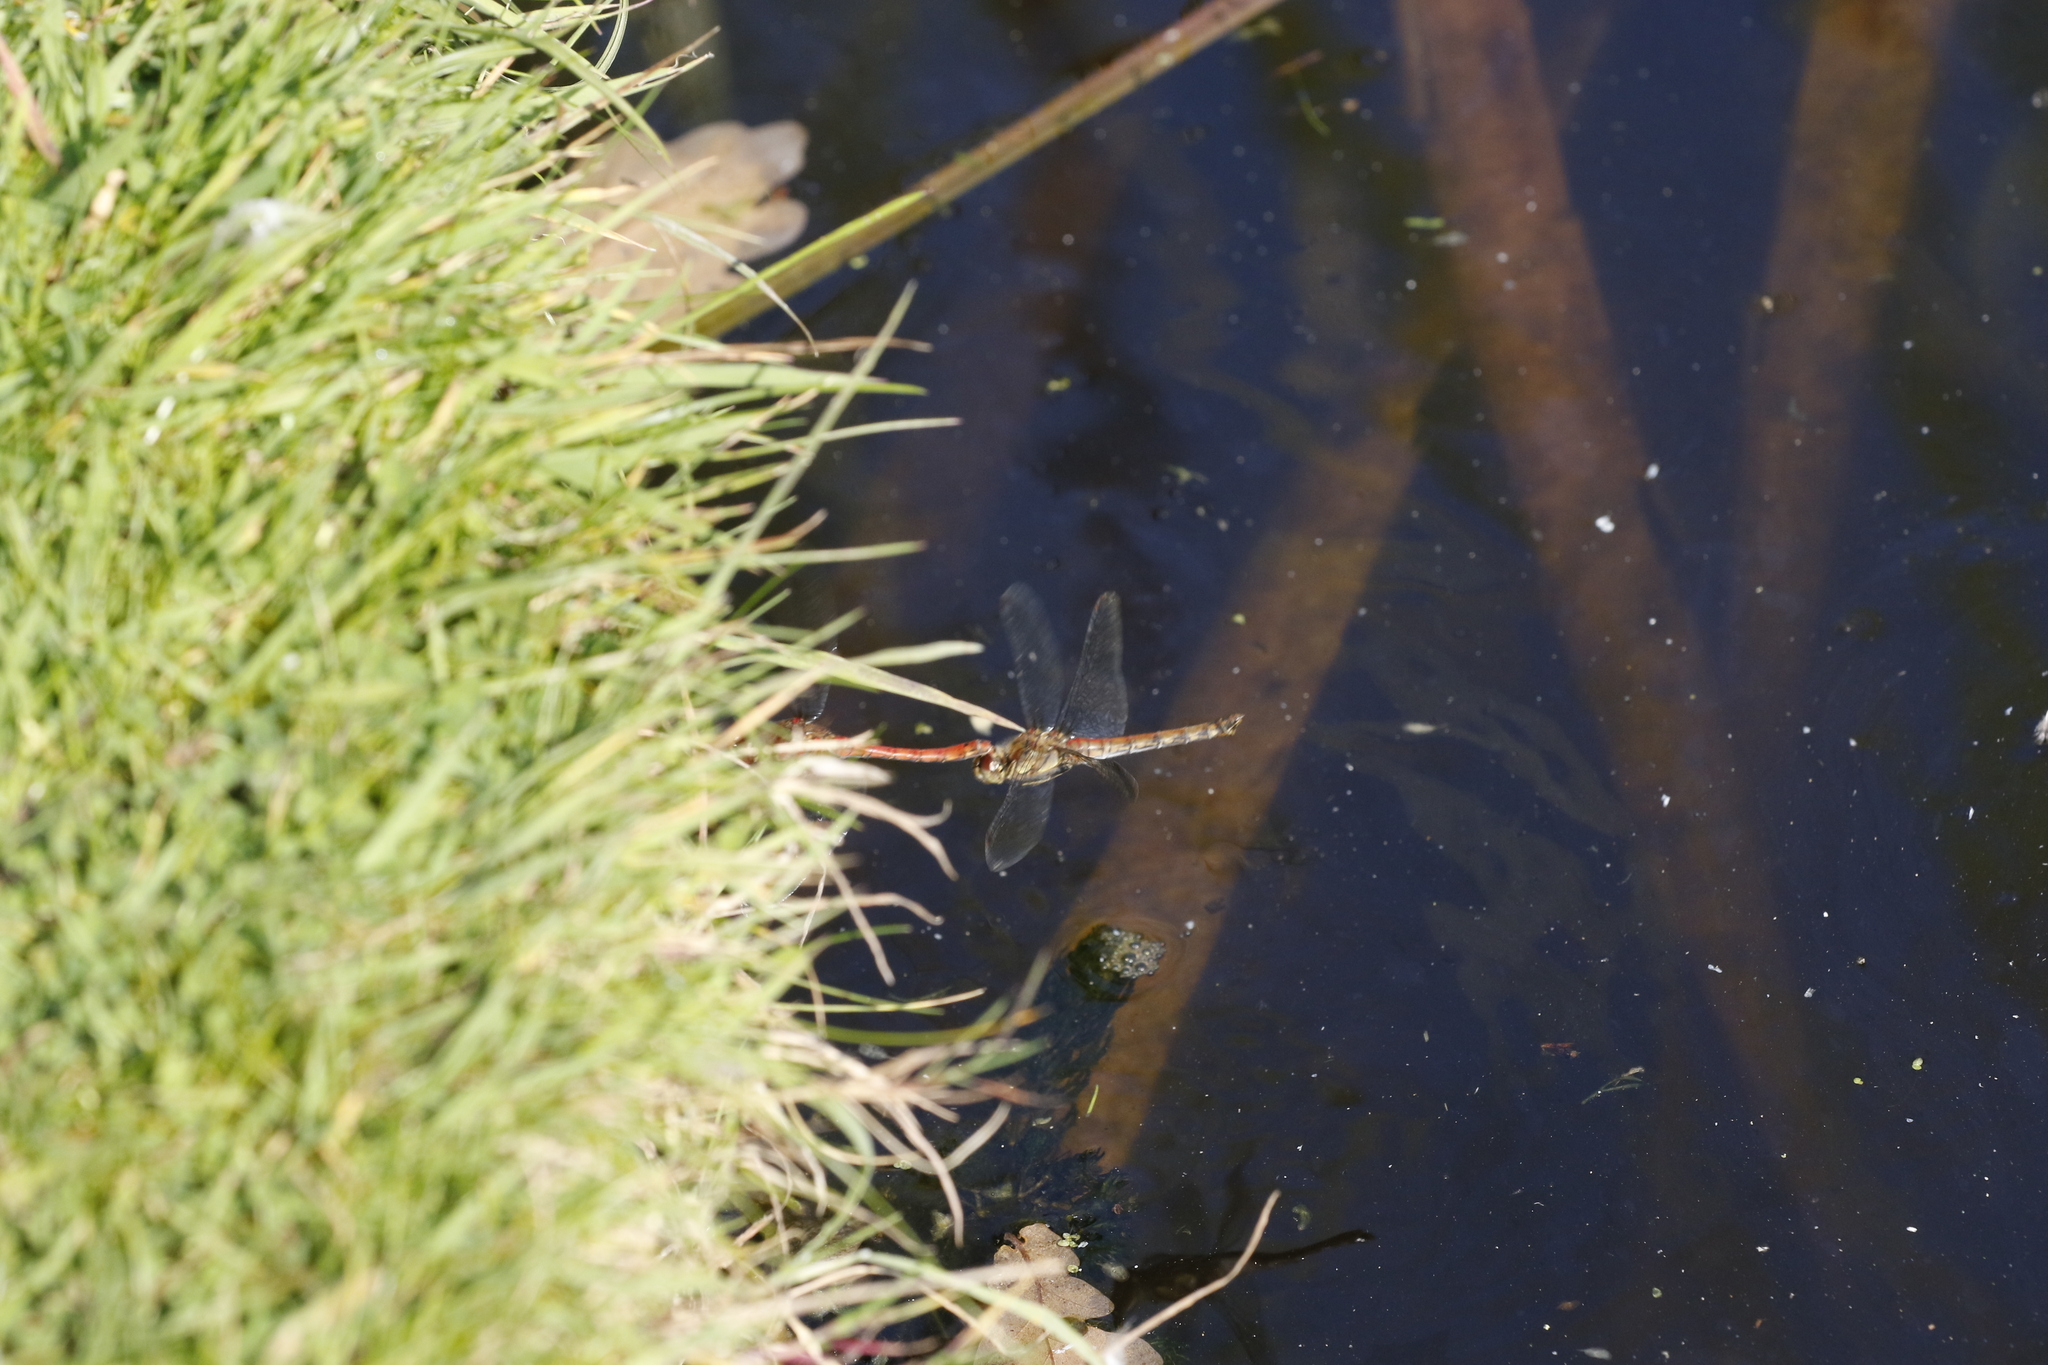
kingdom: Animalia
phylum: Arthropoda
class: Insecta
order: Odonata
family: Libellulidae
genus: Sympetrum
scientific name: Sympetrum striolatum
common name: Common darter
